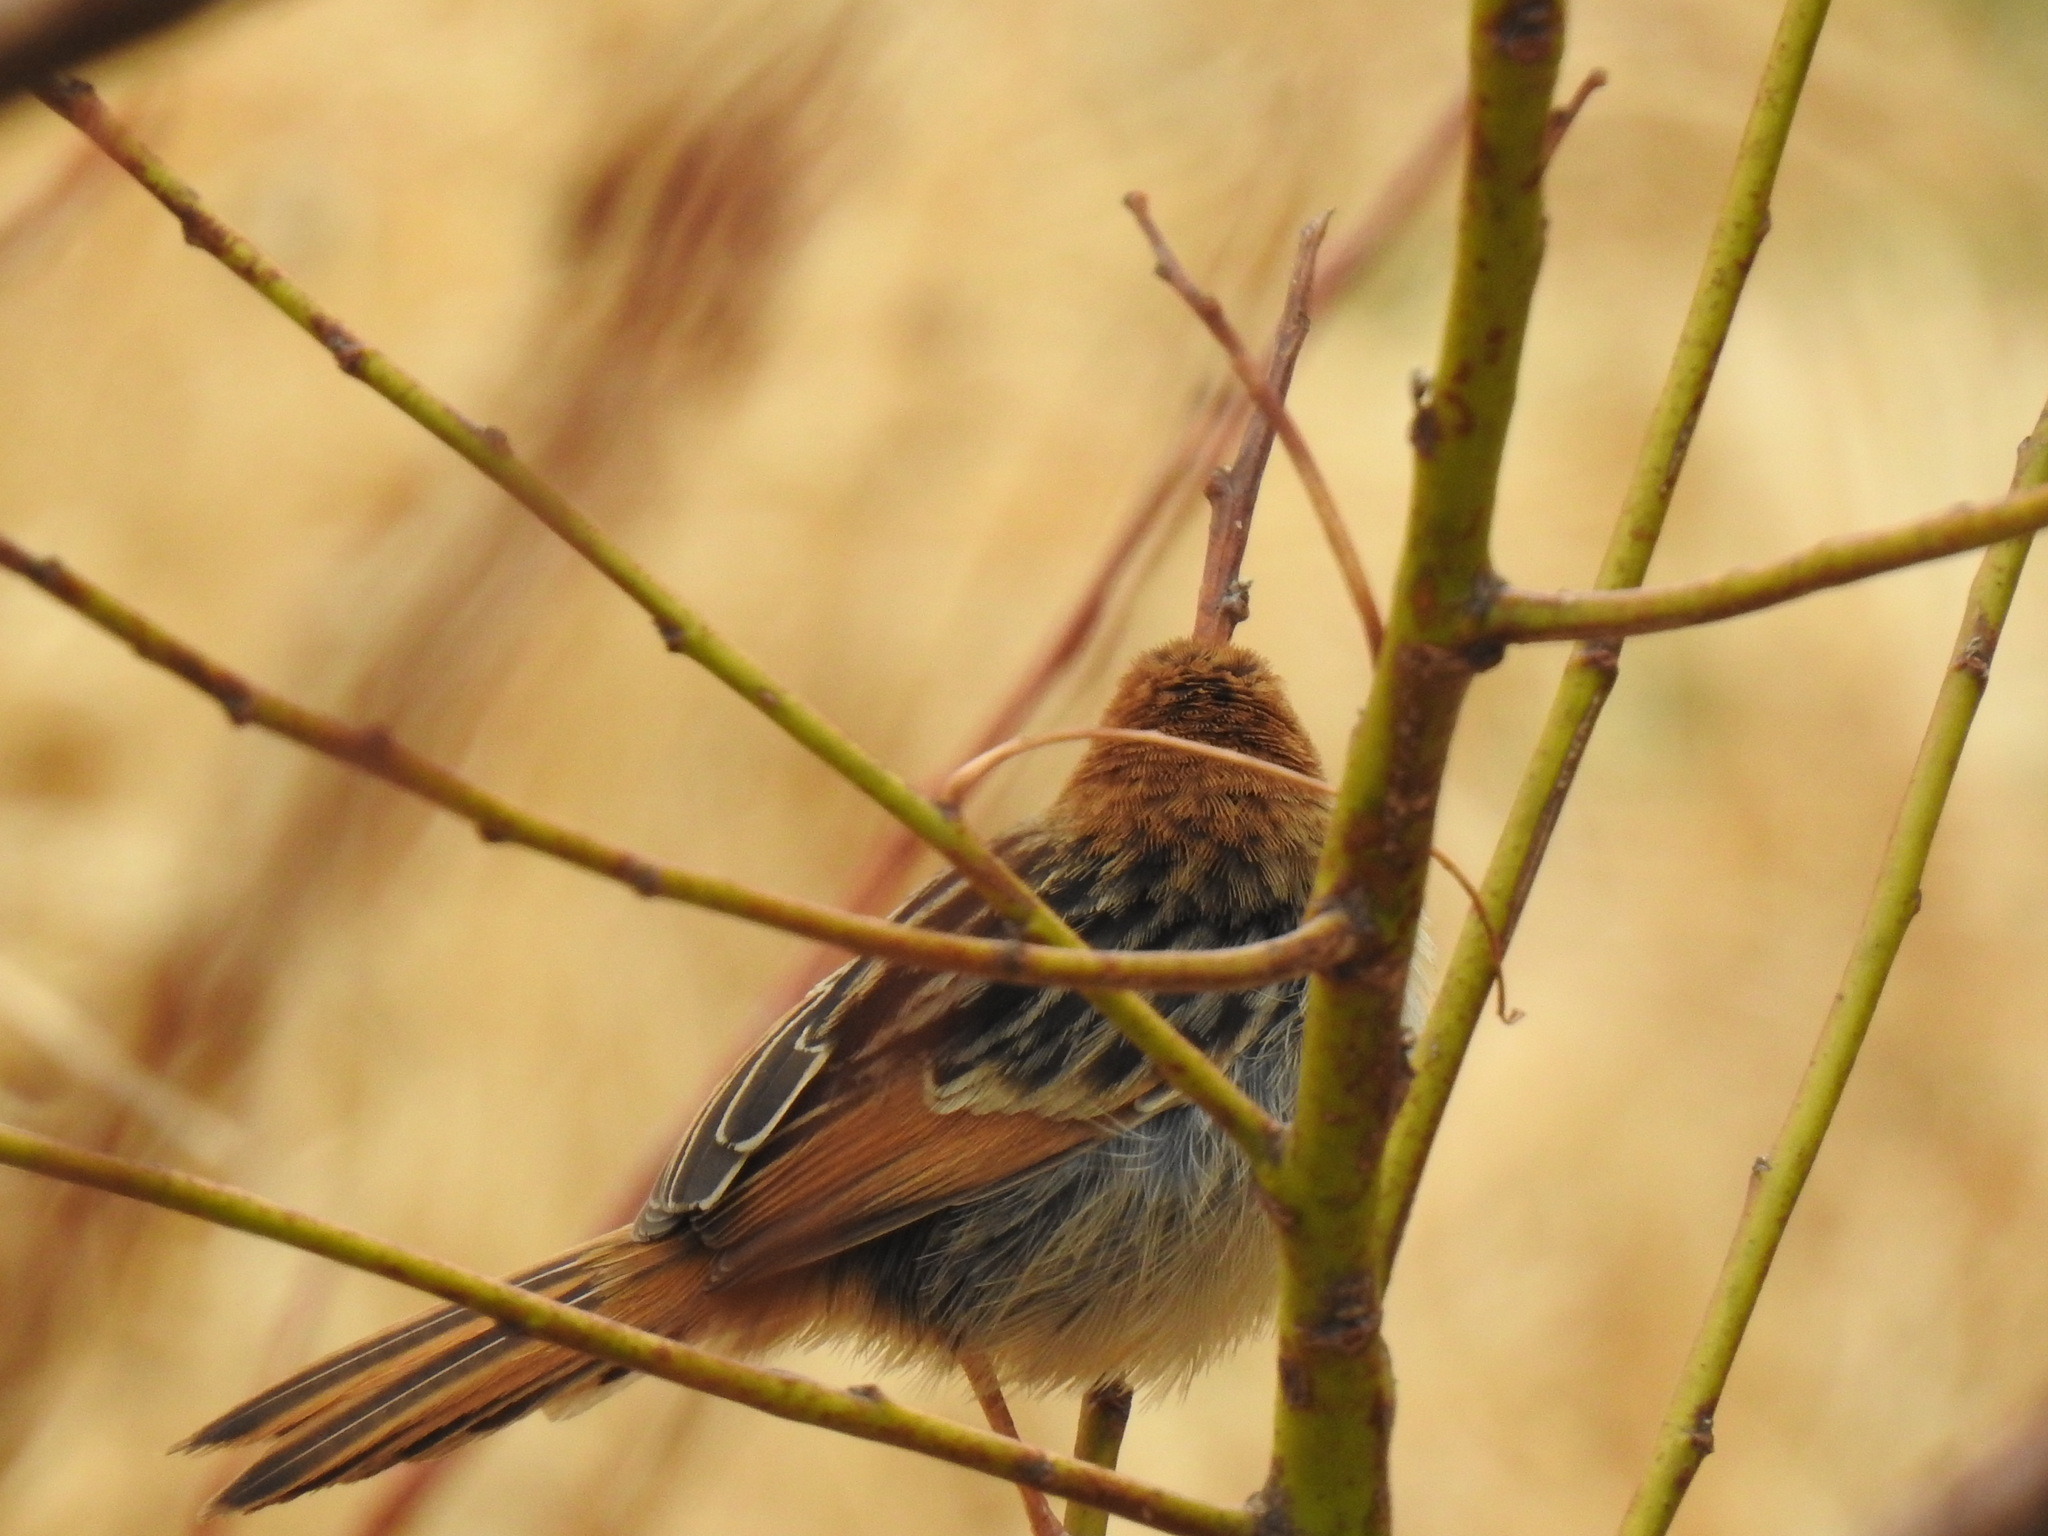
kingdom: Animalia
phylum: Chordata
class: Aves
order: Passeriformes
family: Cisticolidae
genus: Cisticola
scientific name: Cisticola tinniens
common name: Levaillant's cisticola
